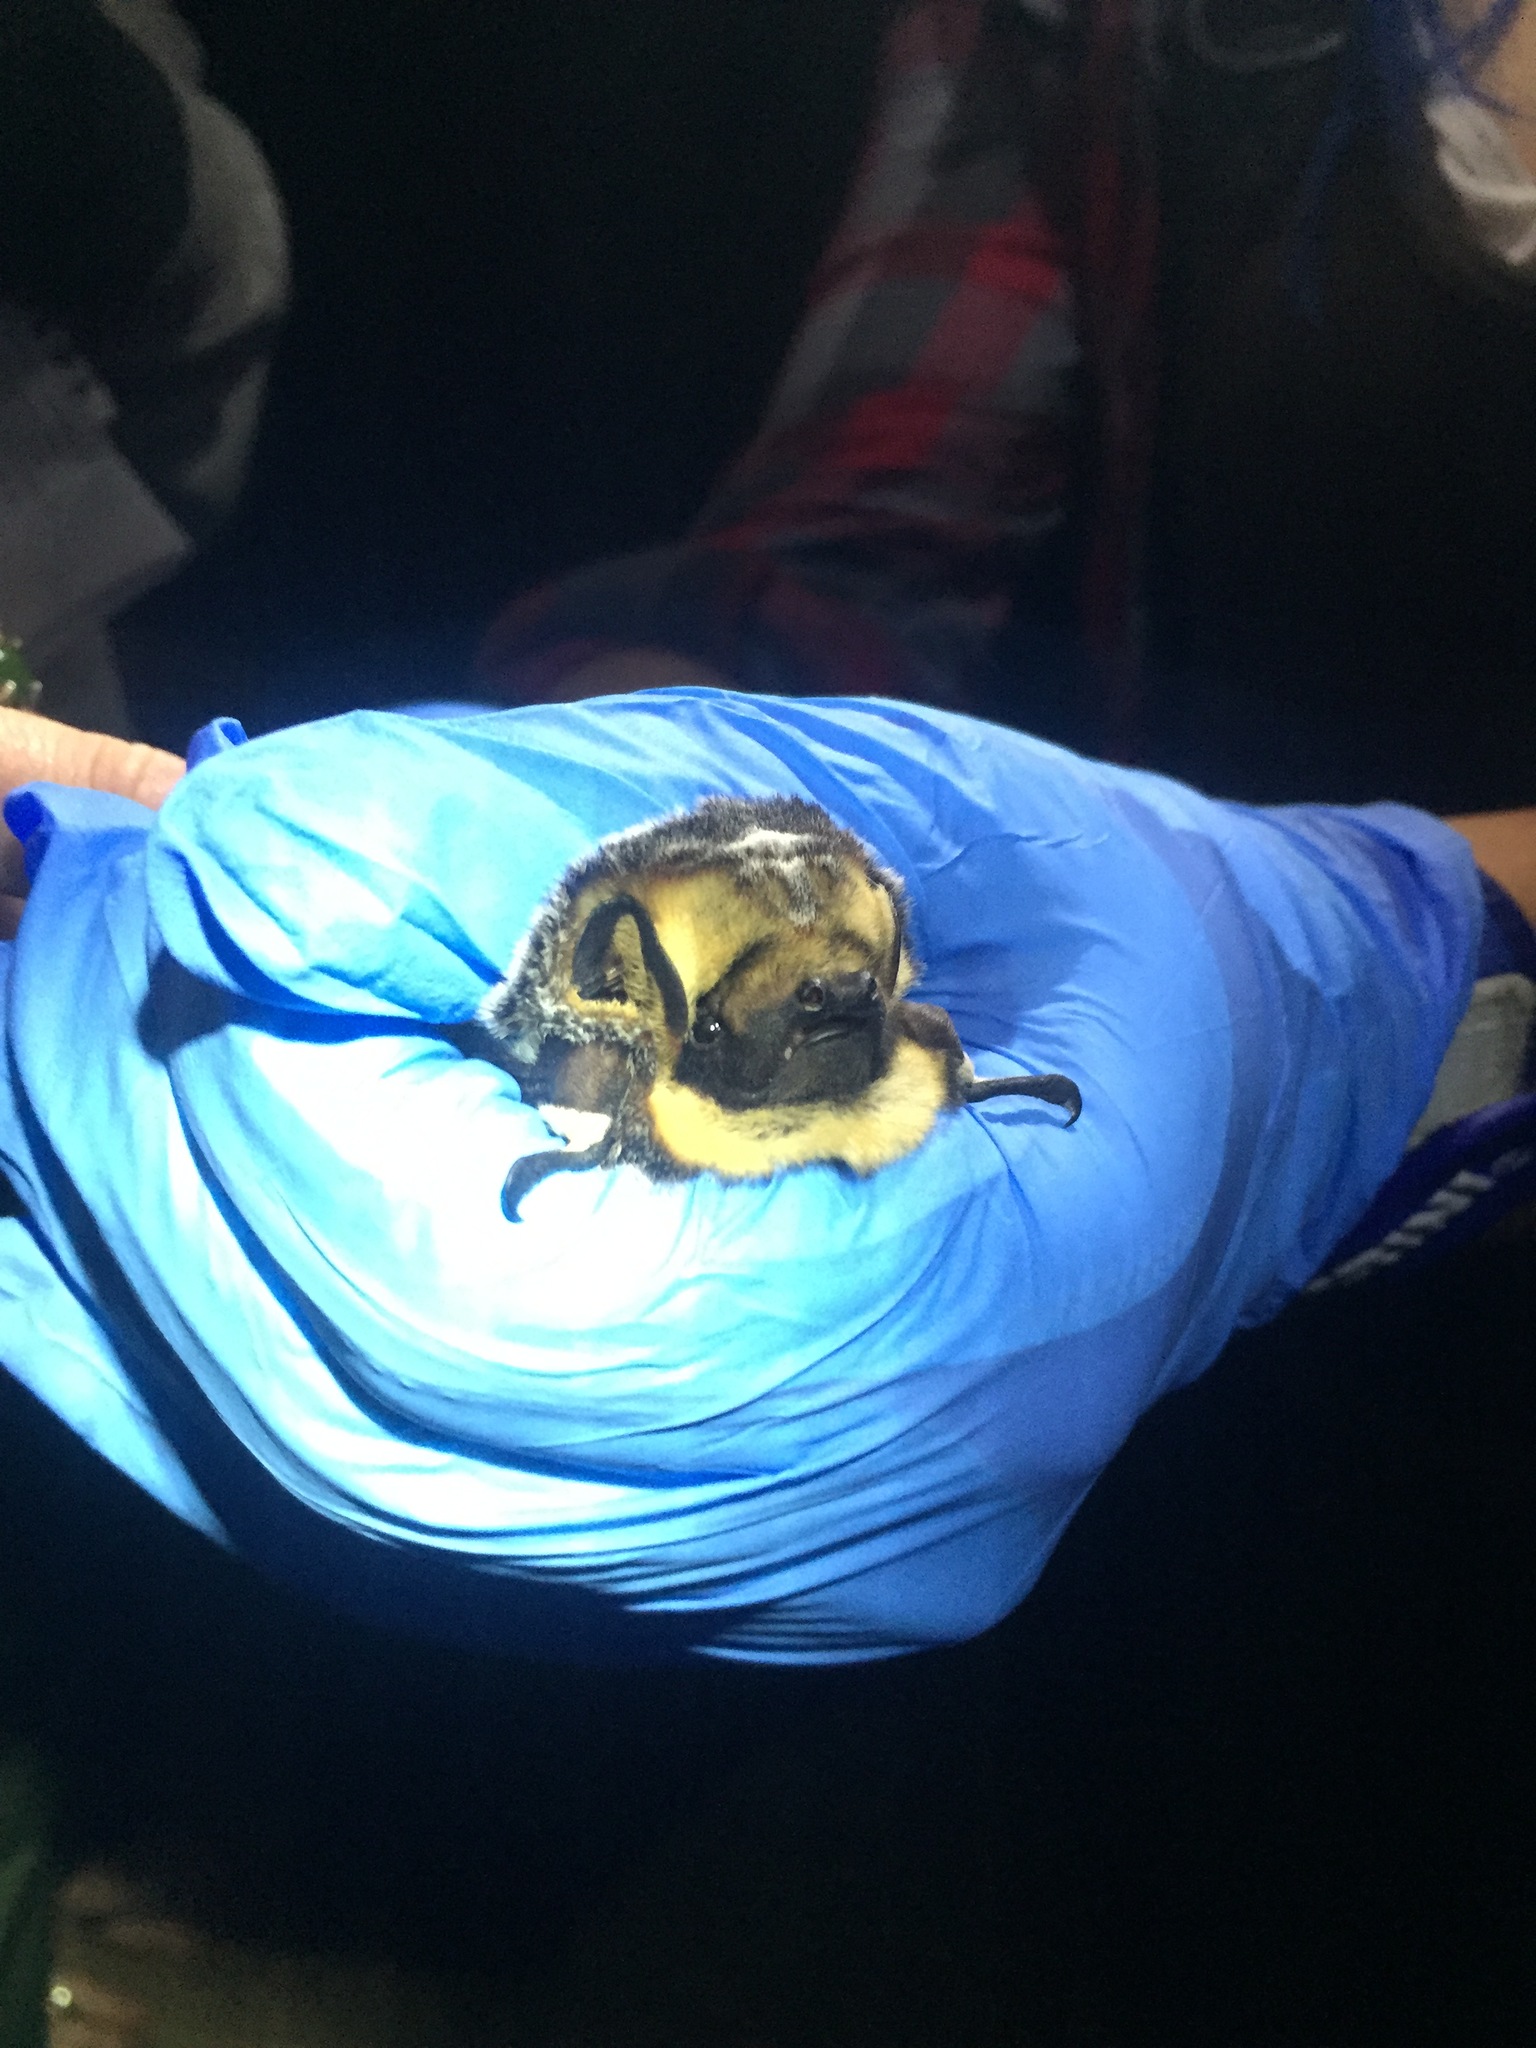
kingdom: Animalia
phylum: Chordata
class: Mammalia
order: Chiroptera
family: Vespertilionidae
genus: Aeorestes
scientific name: Aeorestes cinereus
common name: North american hoary bat
